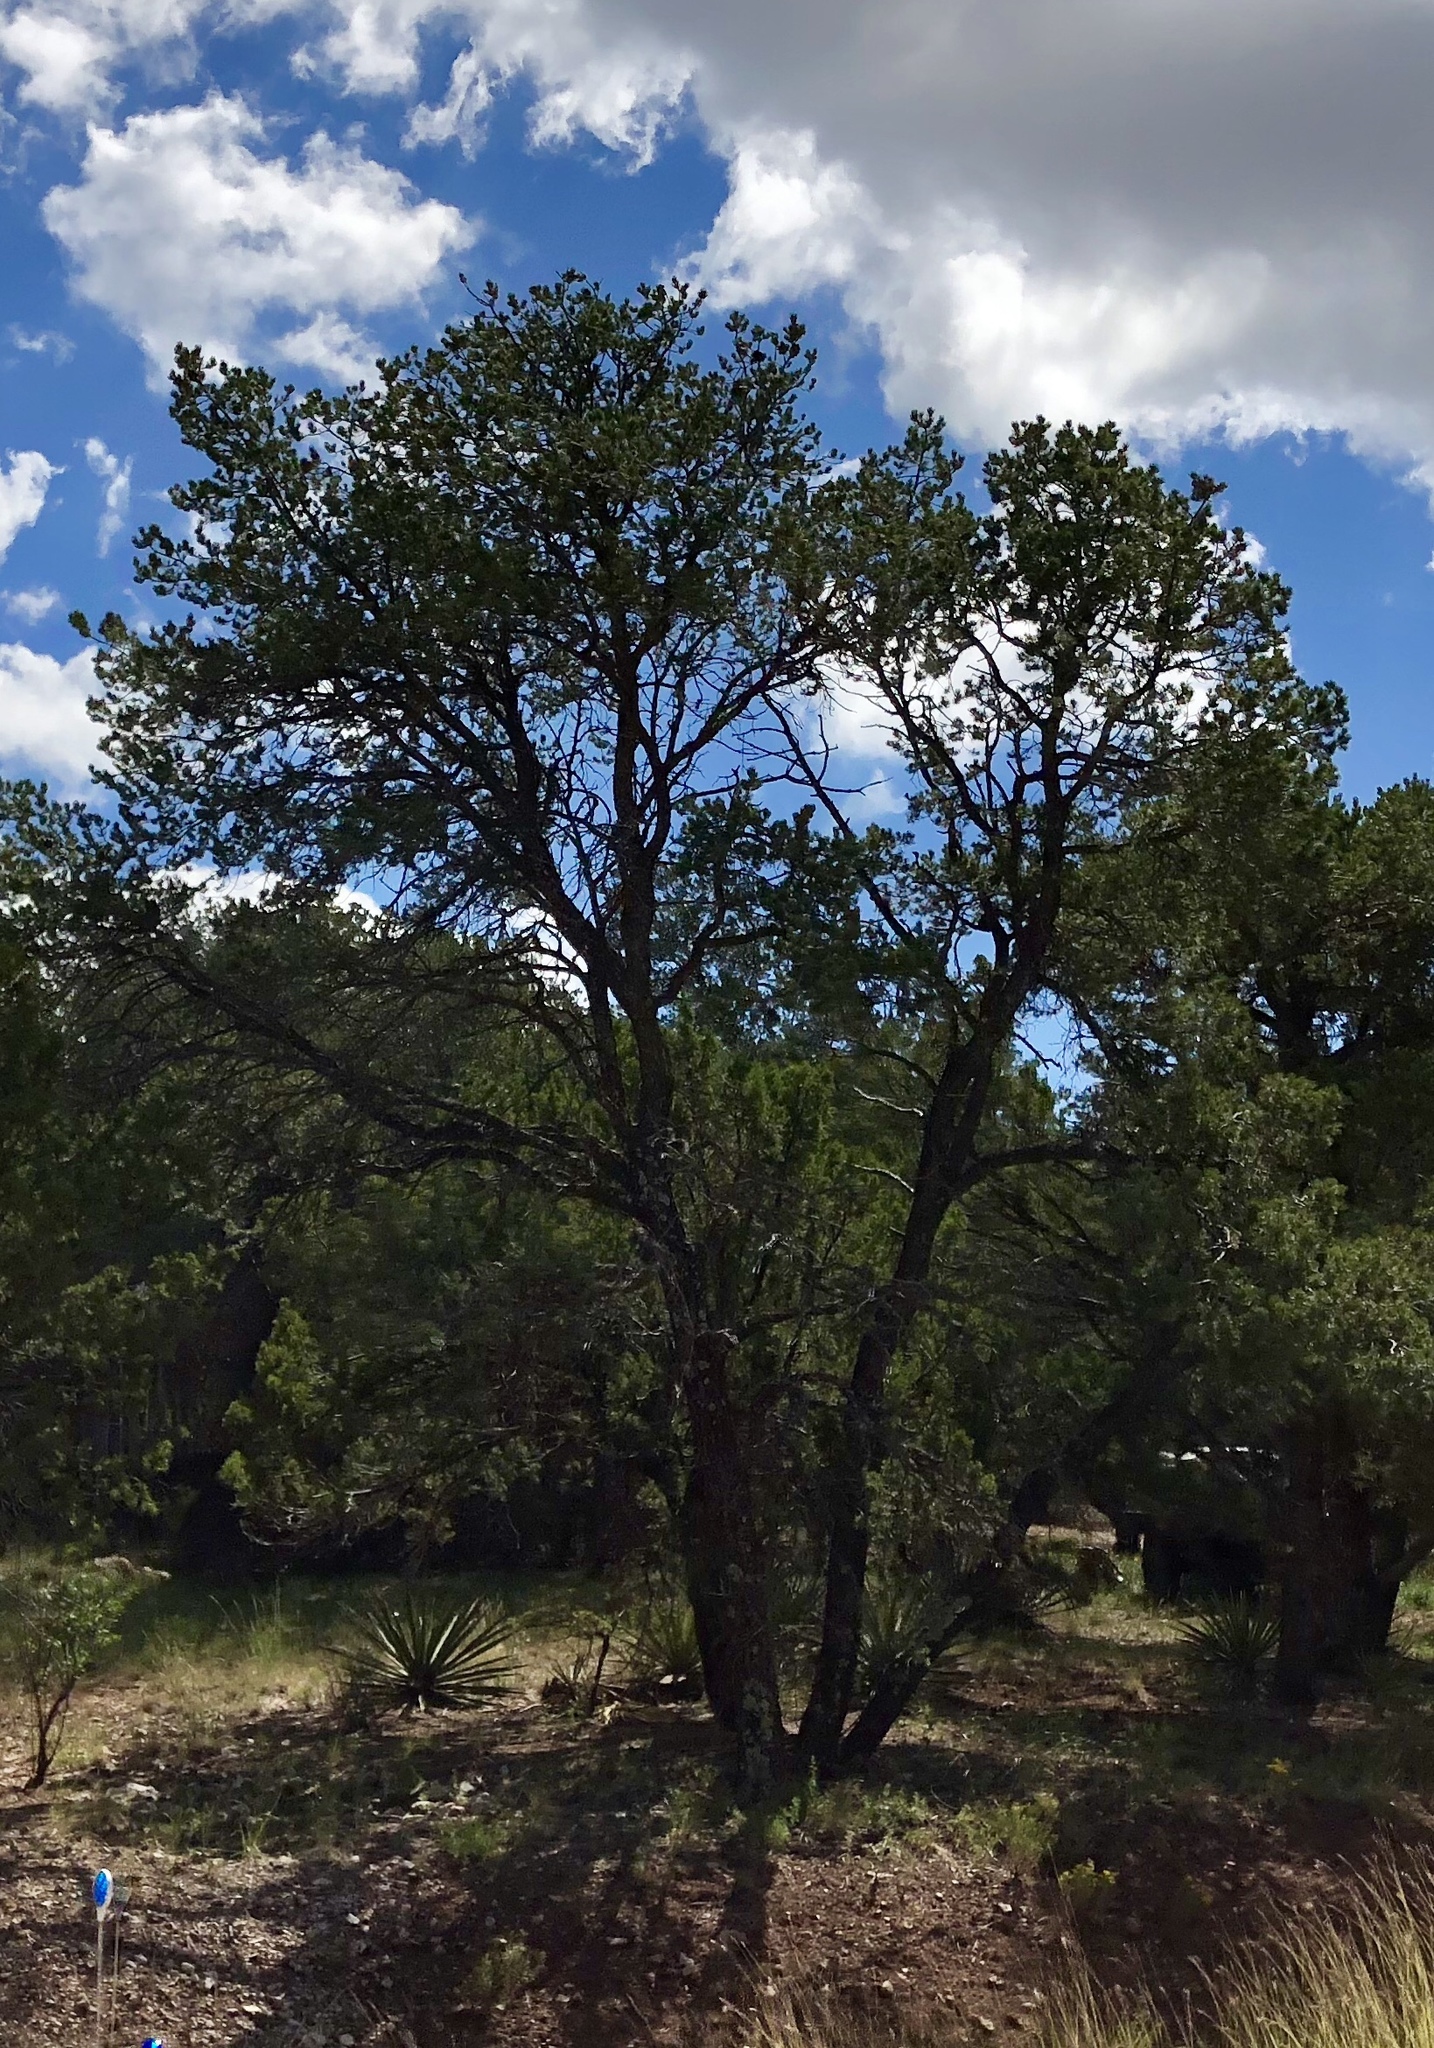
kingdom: Plantae
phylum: Tracheophyta
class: Pinopsida
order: Pinales
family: Pinaceae
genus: Pinus
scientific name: Pinus edulis
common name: Colorado pinyon
